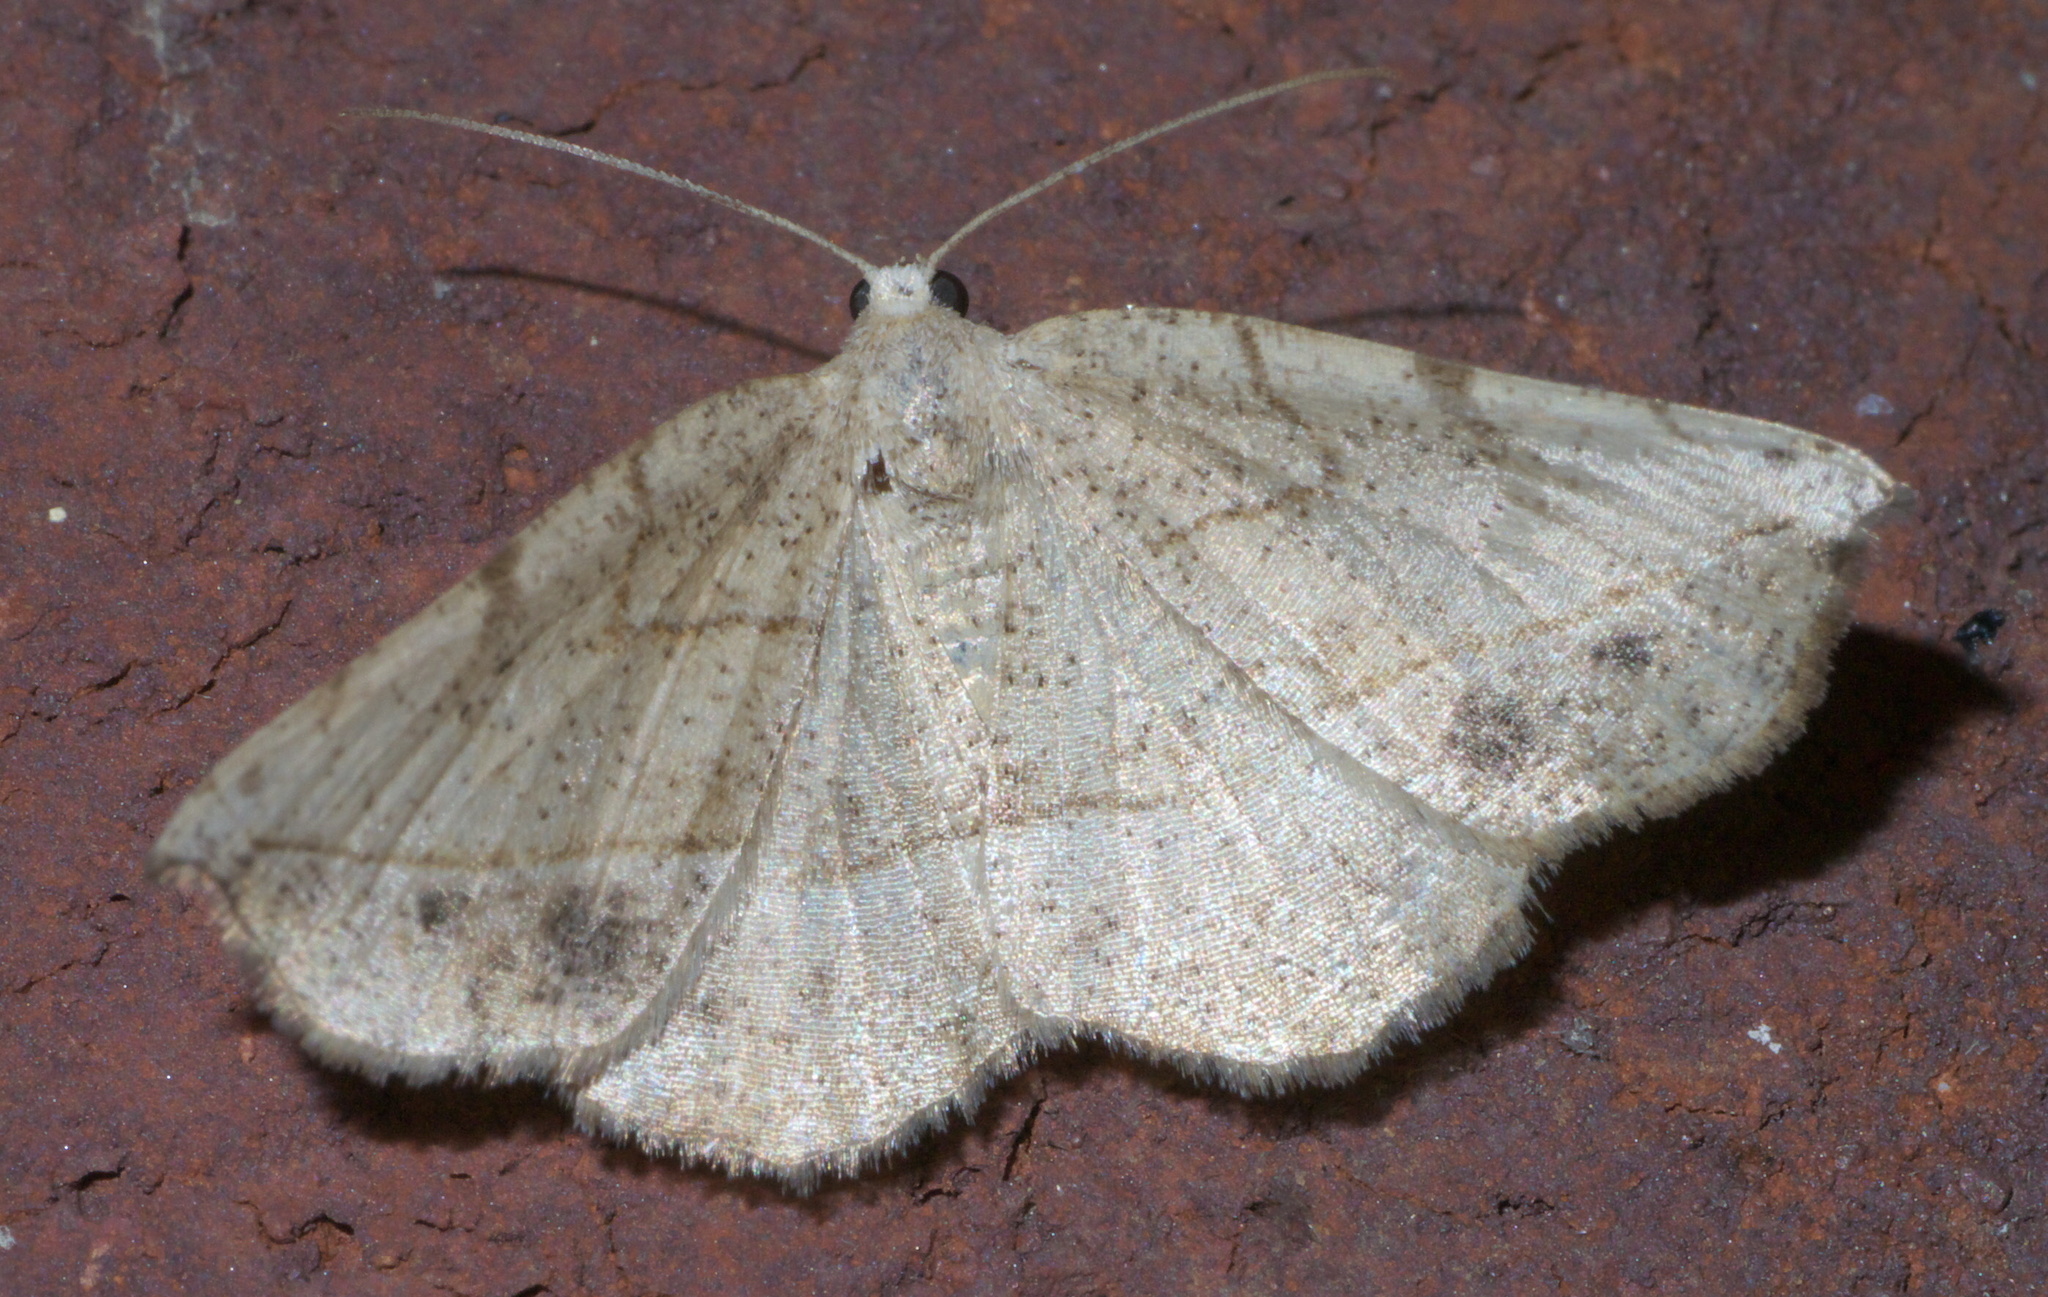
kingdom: Animalia
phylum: Arthropoda
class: Insecta
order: Lepidoptera
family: Geometridae
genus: Eusarca
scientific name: Eusarca packardaria
